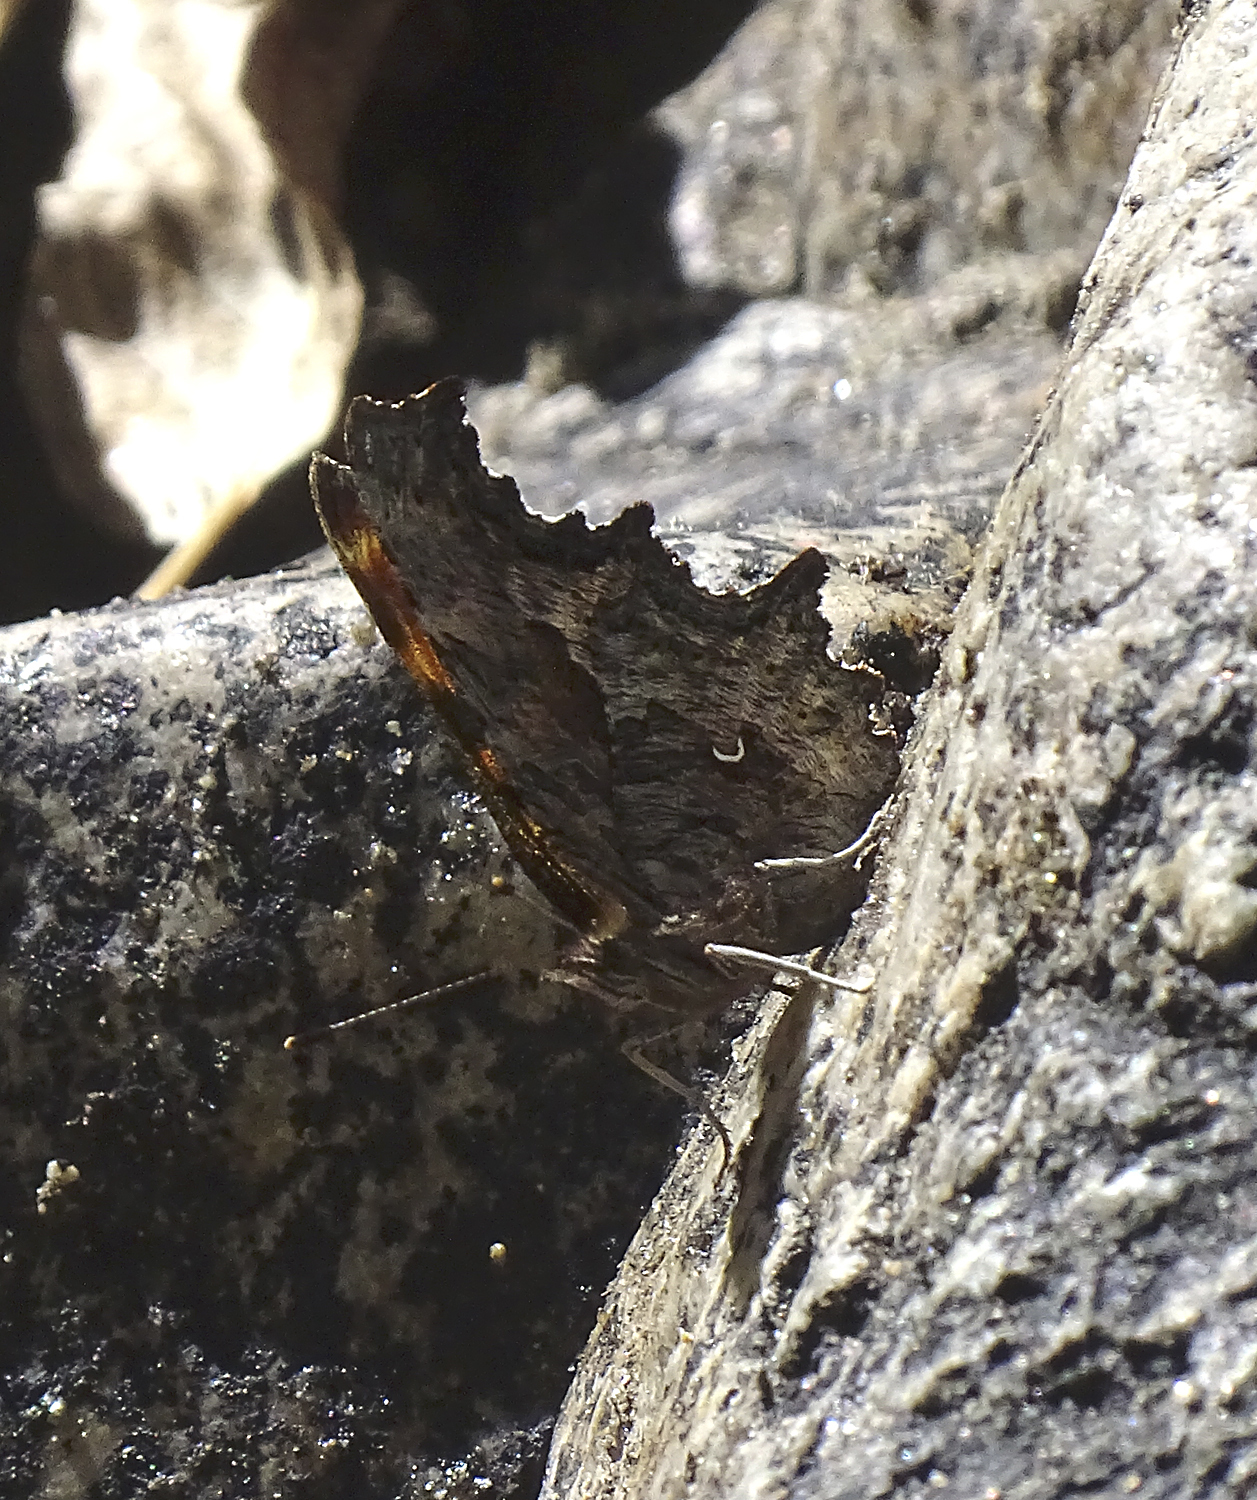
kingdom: Animalia
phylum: Arthropoda
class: Insecta
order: Lepidoptera
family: Nymphalidae
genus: Polygonia
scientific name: Polygonia gracilis
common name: Hoary comma
